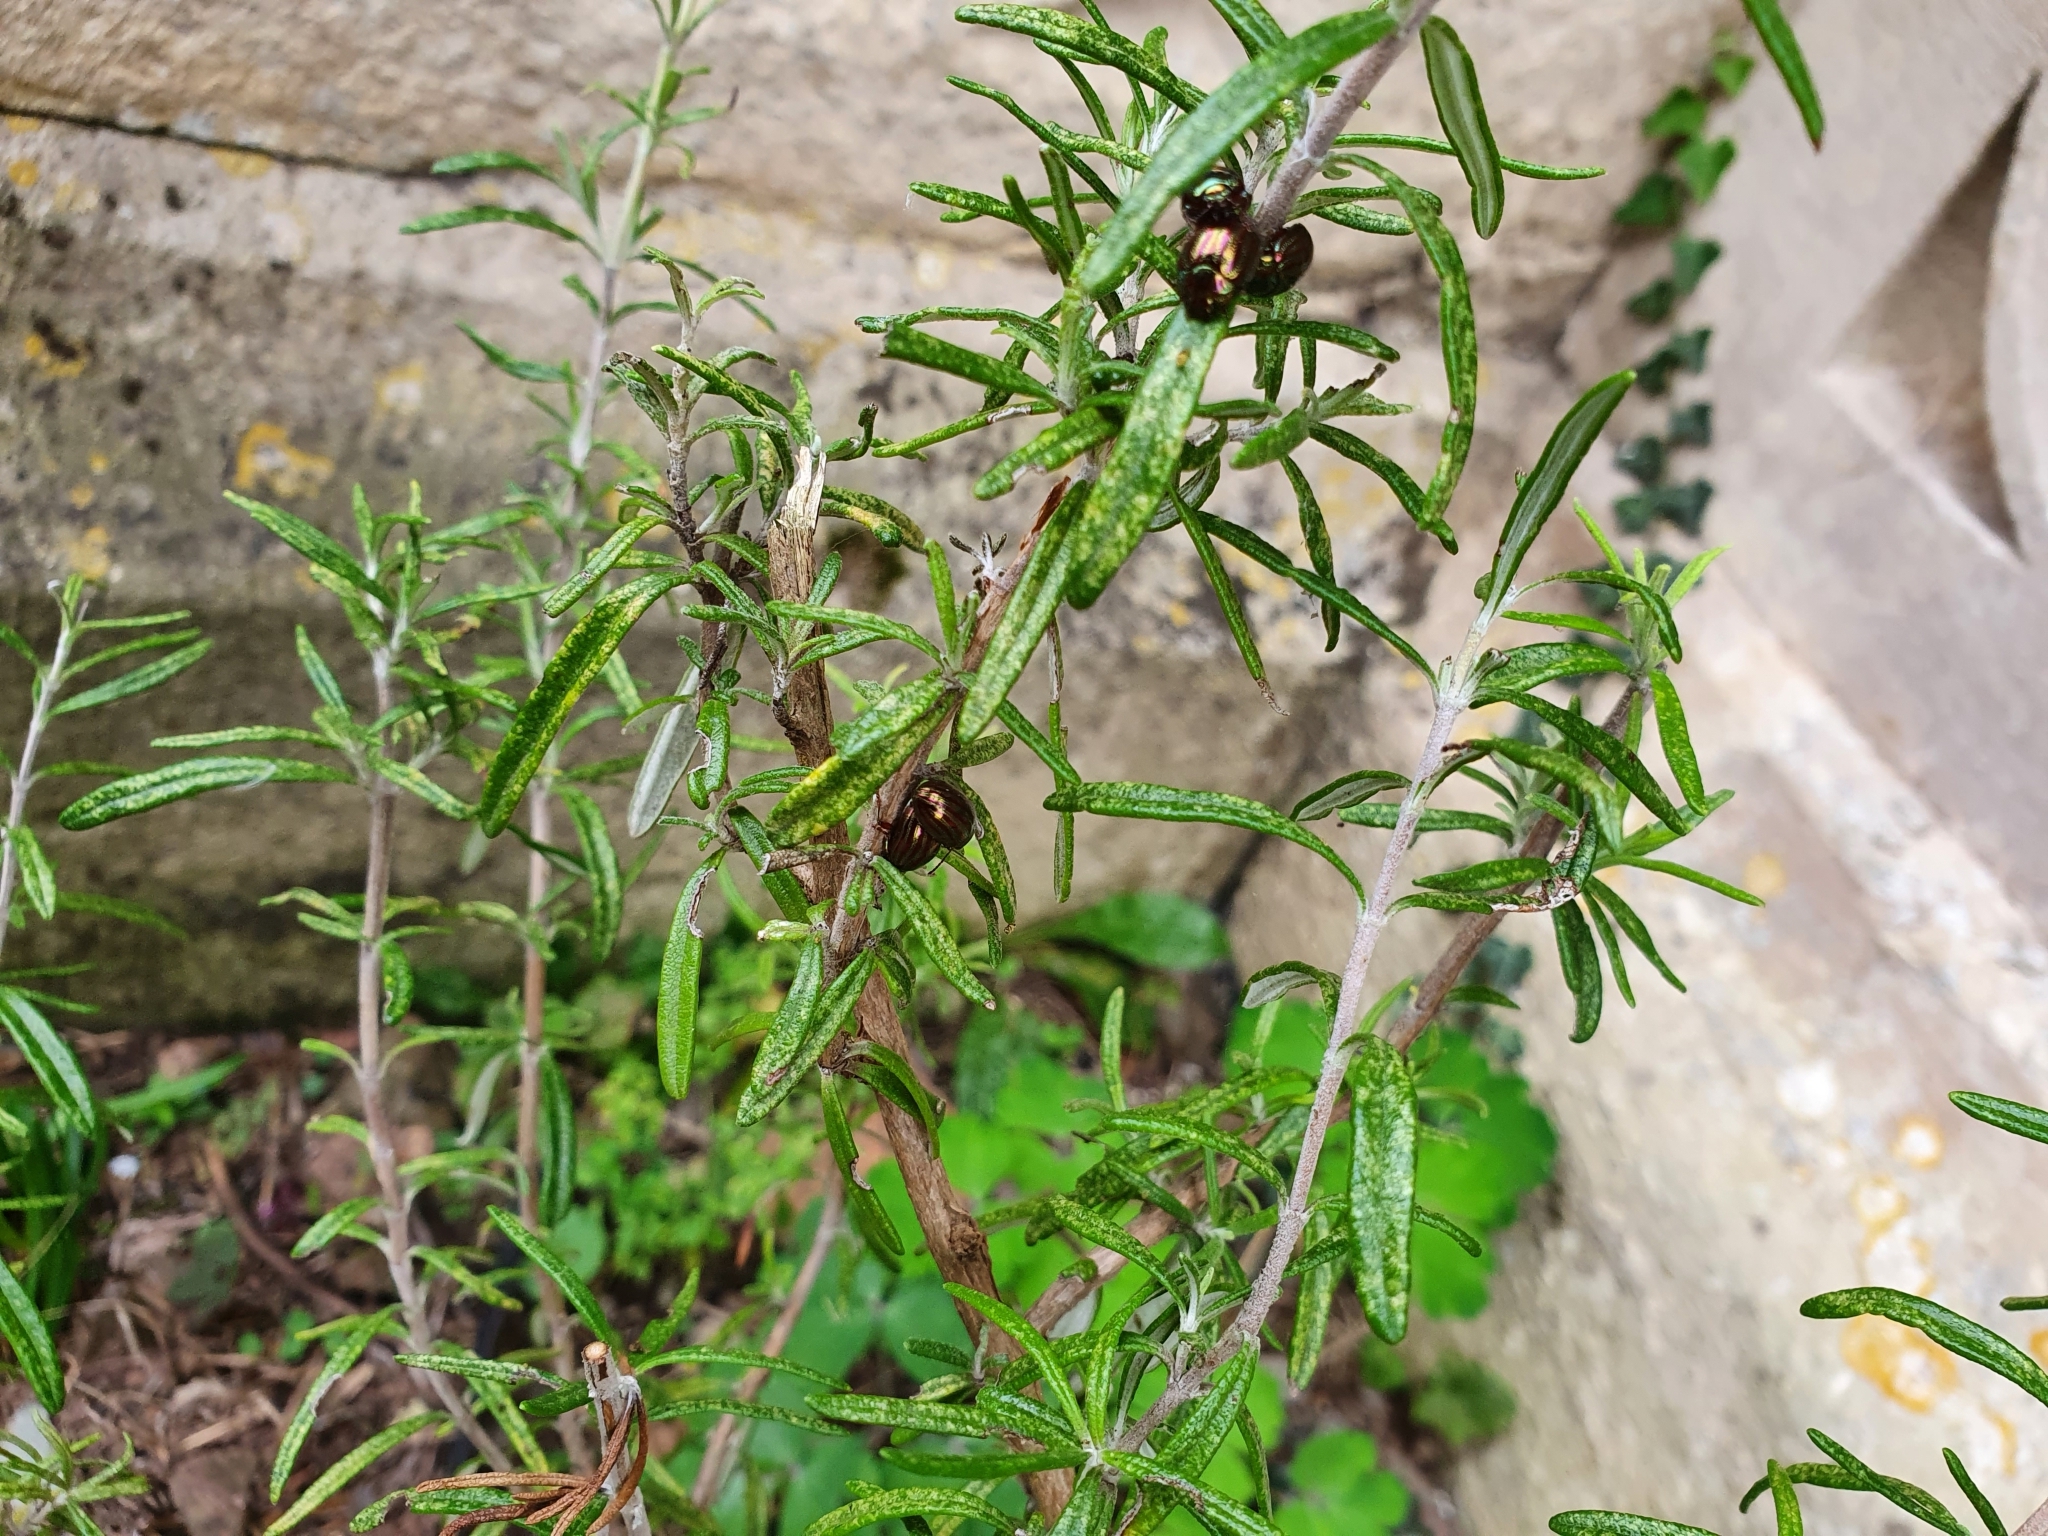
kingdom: Animalia
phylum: Arthropoda
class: Insecta
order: Coleoptera
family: Chrysomelidae
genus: Chrysolina
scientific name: Chrysolina americana
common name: Rosemary beetle
